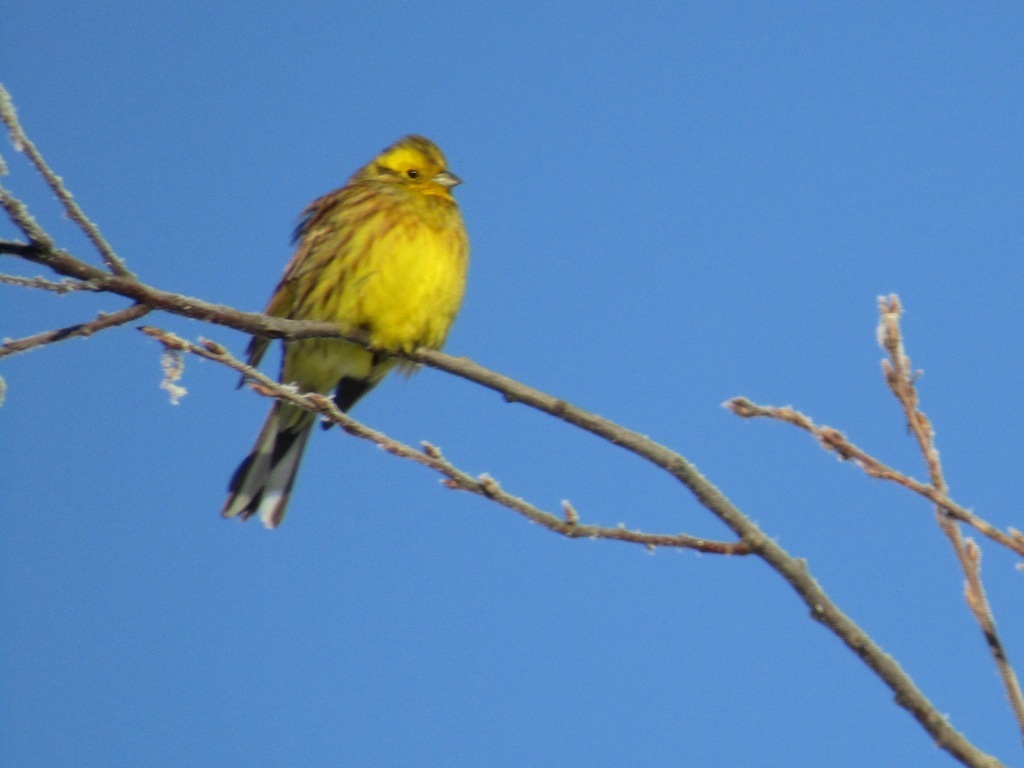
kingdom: Animalia
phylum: Chordata
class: Aves
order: Passeriformes
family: Emberizidae
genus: Emberiza
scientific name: Emberiza citrinella
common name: Yellowhammer
